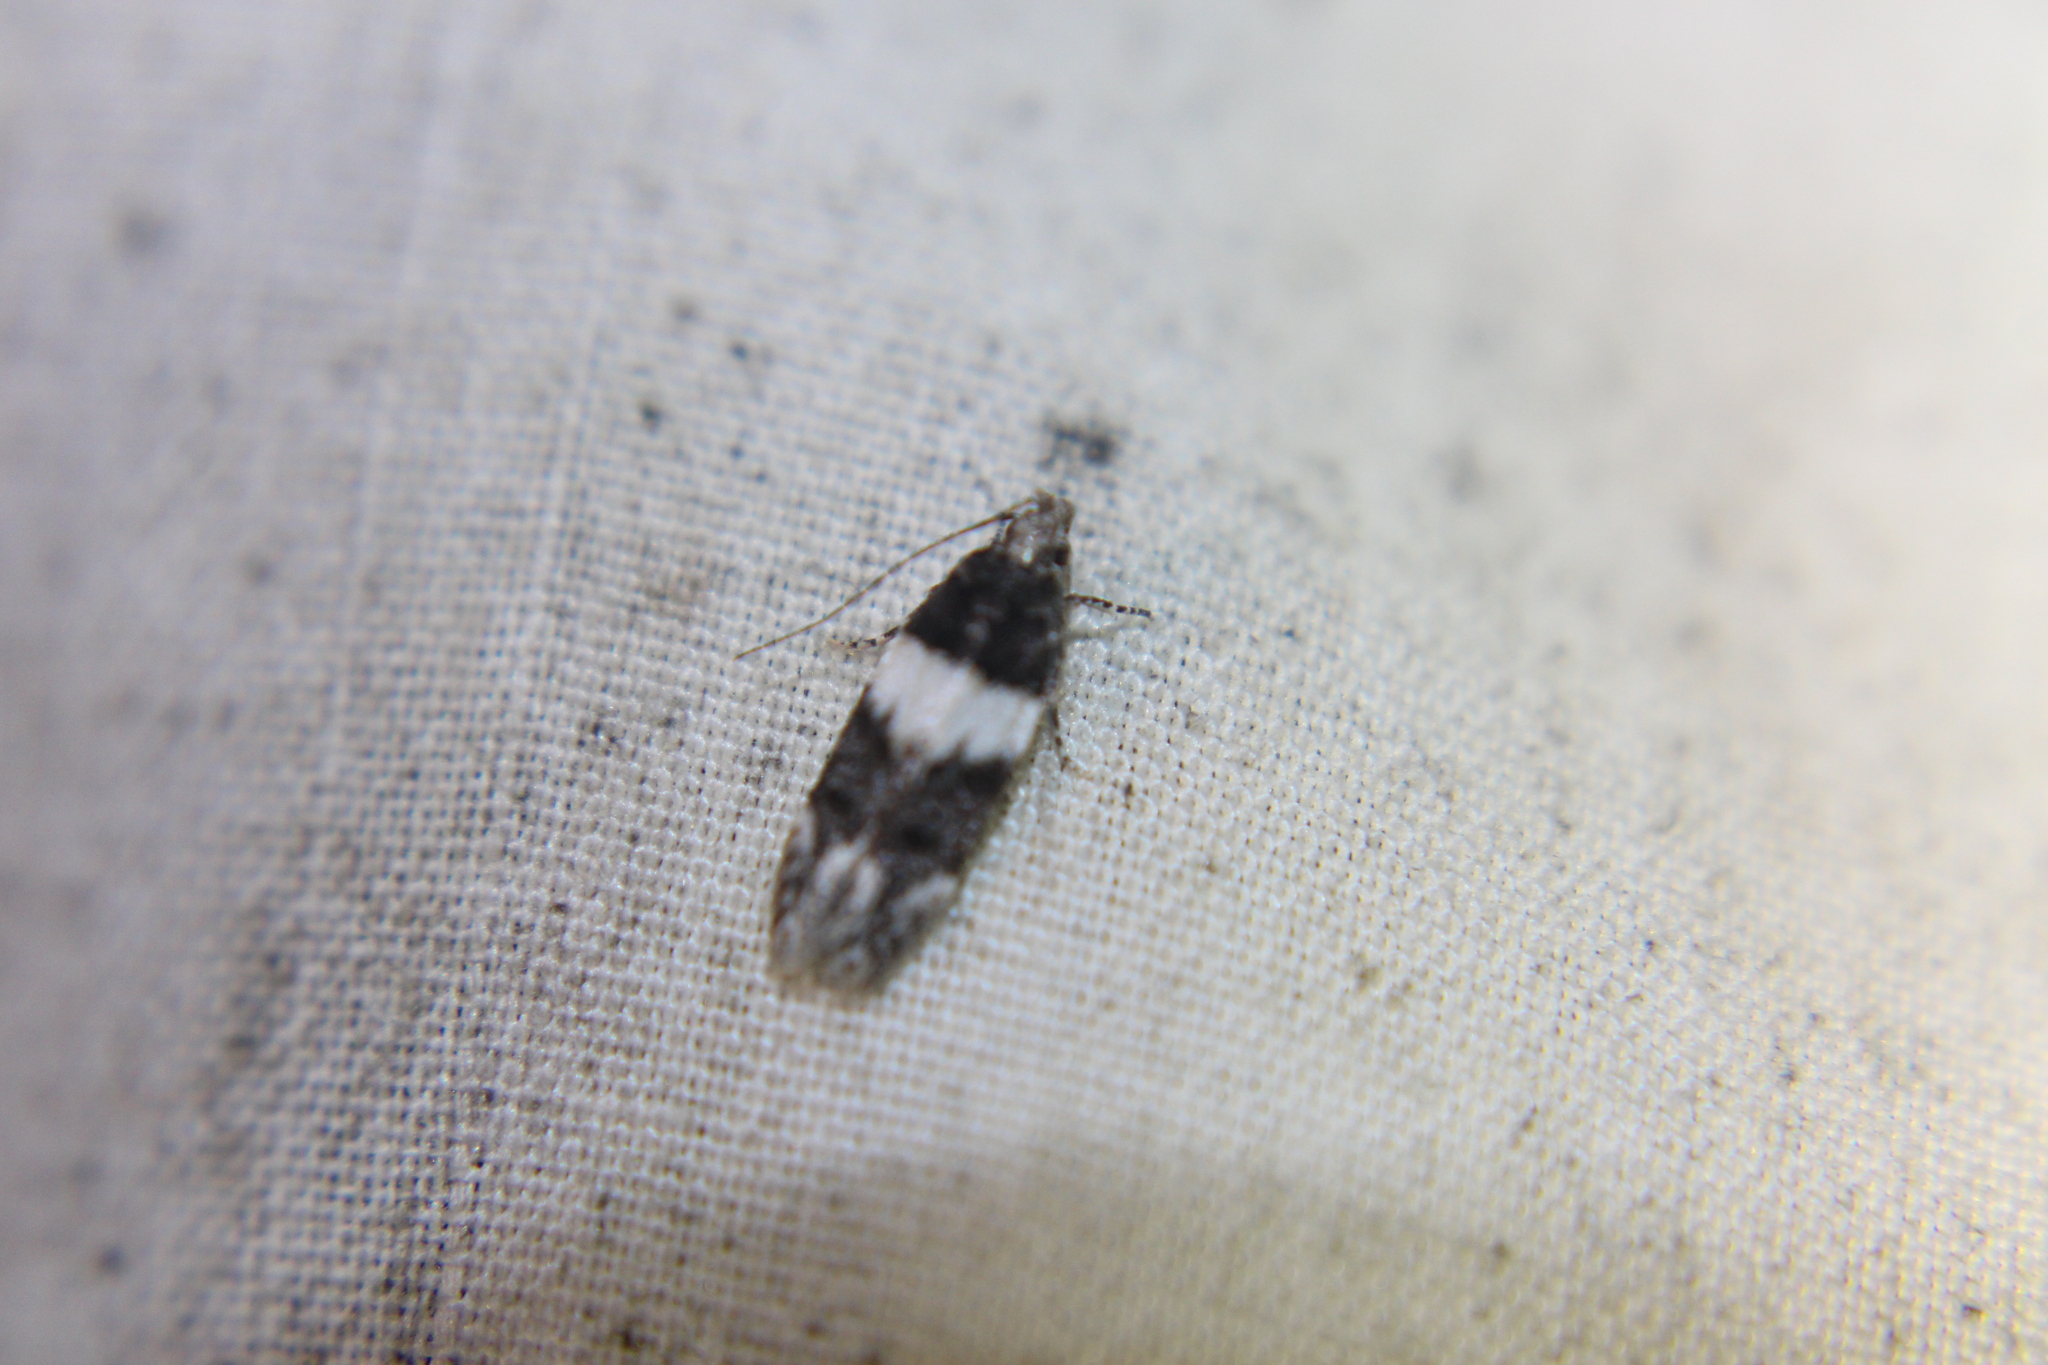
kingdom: Animalia
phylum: Arthropoda
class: Insecta
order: Lepidoptera
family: Gelechiidae
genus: Pubitelphusa
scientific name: Pubitelphusa latifasciella
